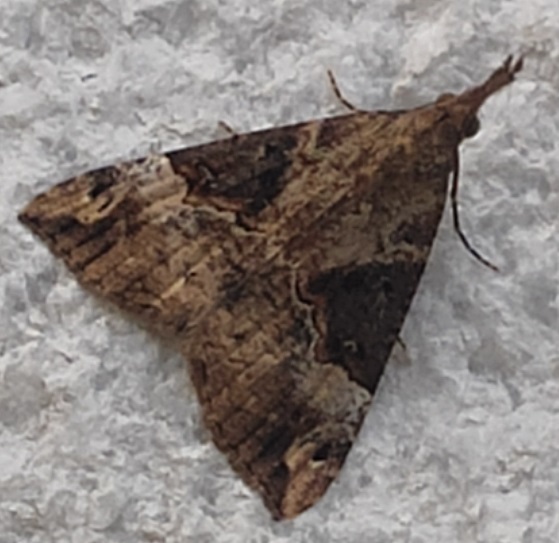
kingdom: Animalia
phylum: Arthropoda
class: Insecta
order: Lepidoptera
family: Erebidae
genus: Hypena
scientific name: Hypena obsitalis
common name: Bloxworth snout
